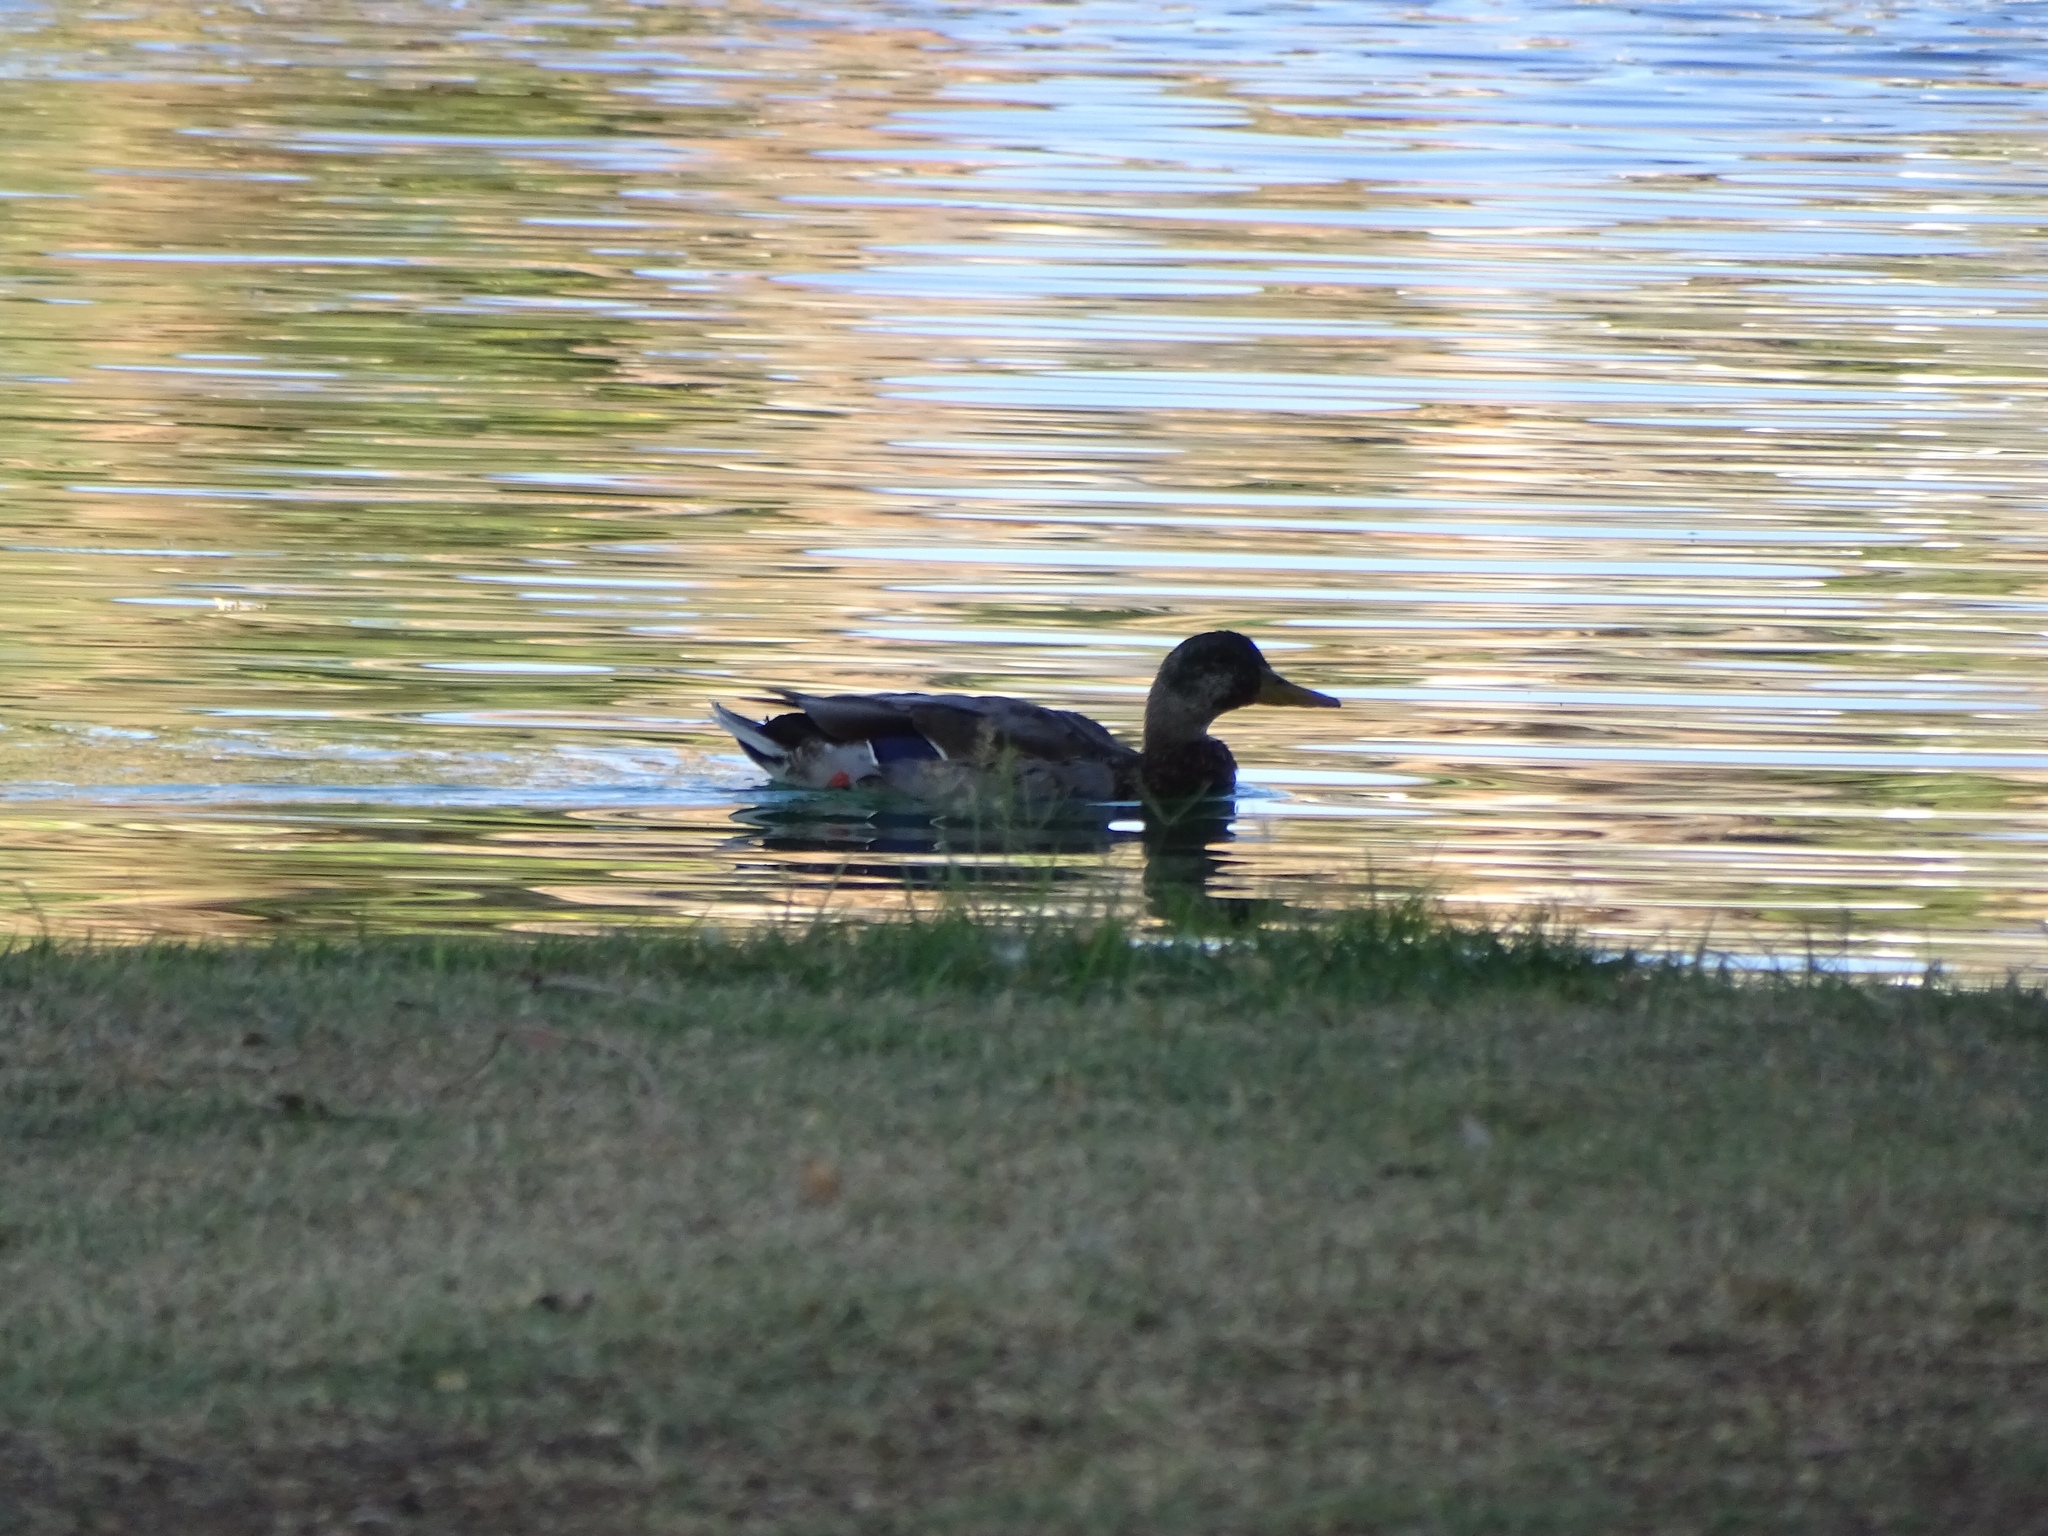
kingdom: Animalia
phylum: Chordata
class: Aves
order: Anseriformes
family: Anatidae
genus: Anas
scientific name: Anas platyrhynchos
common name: Mallard
